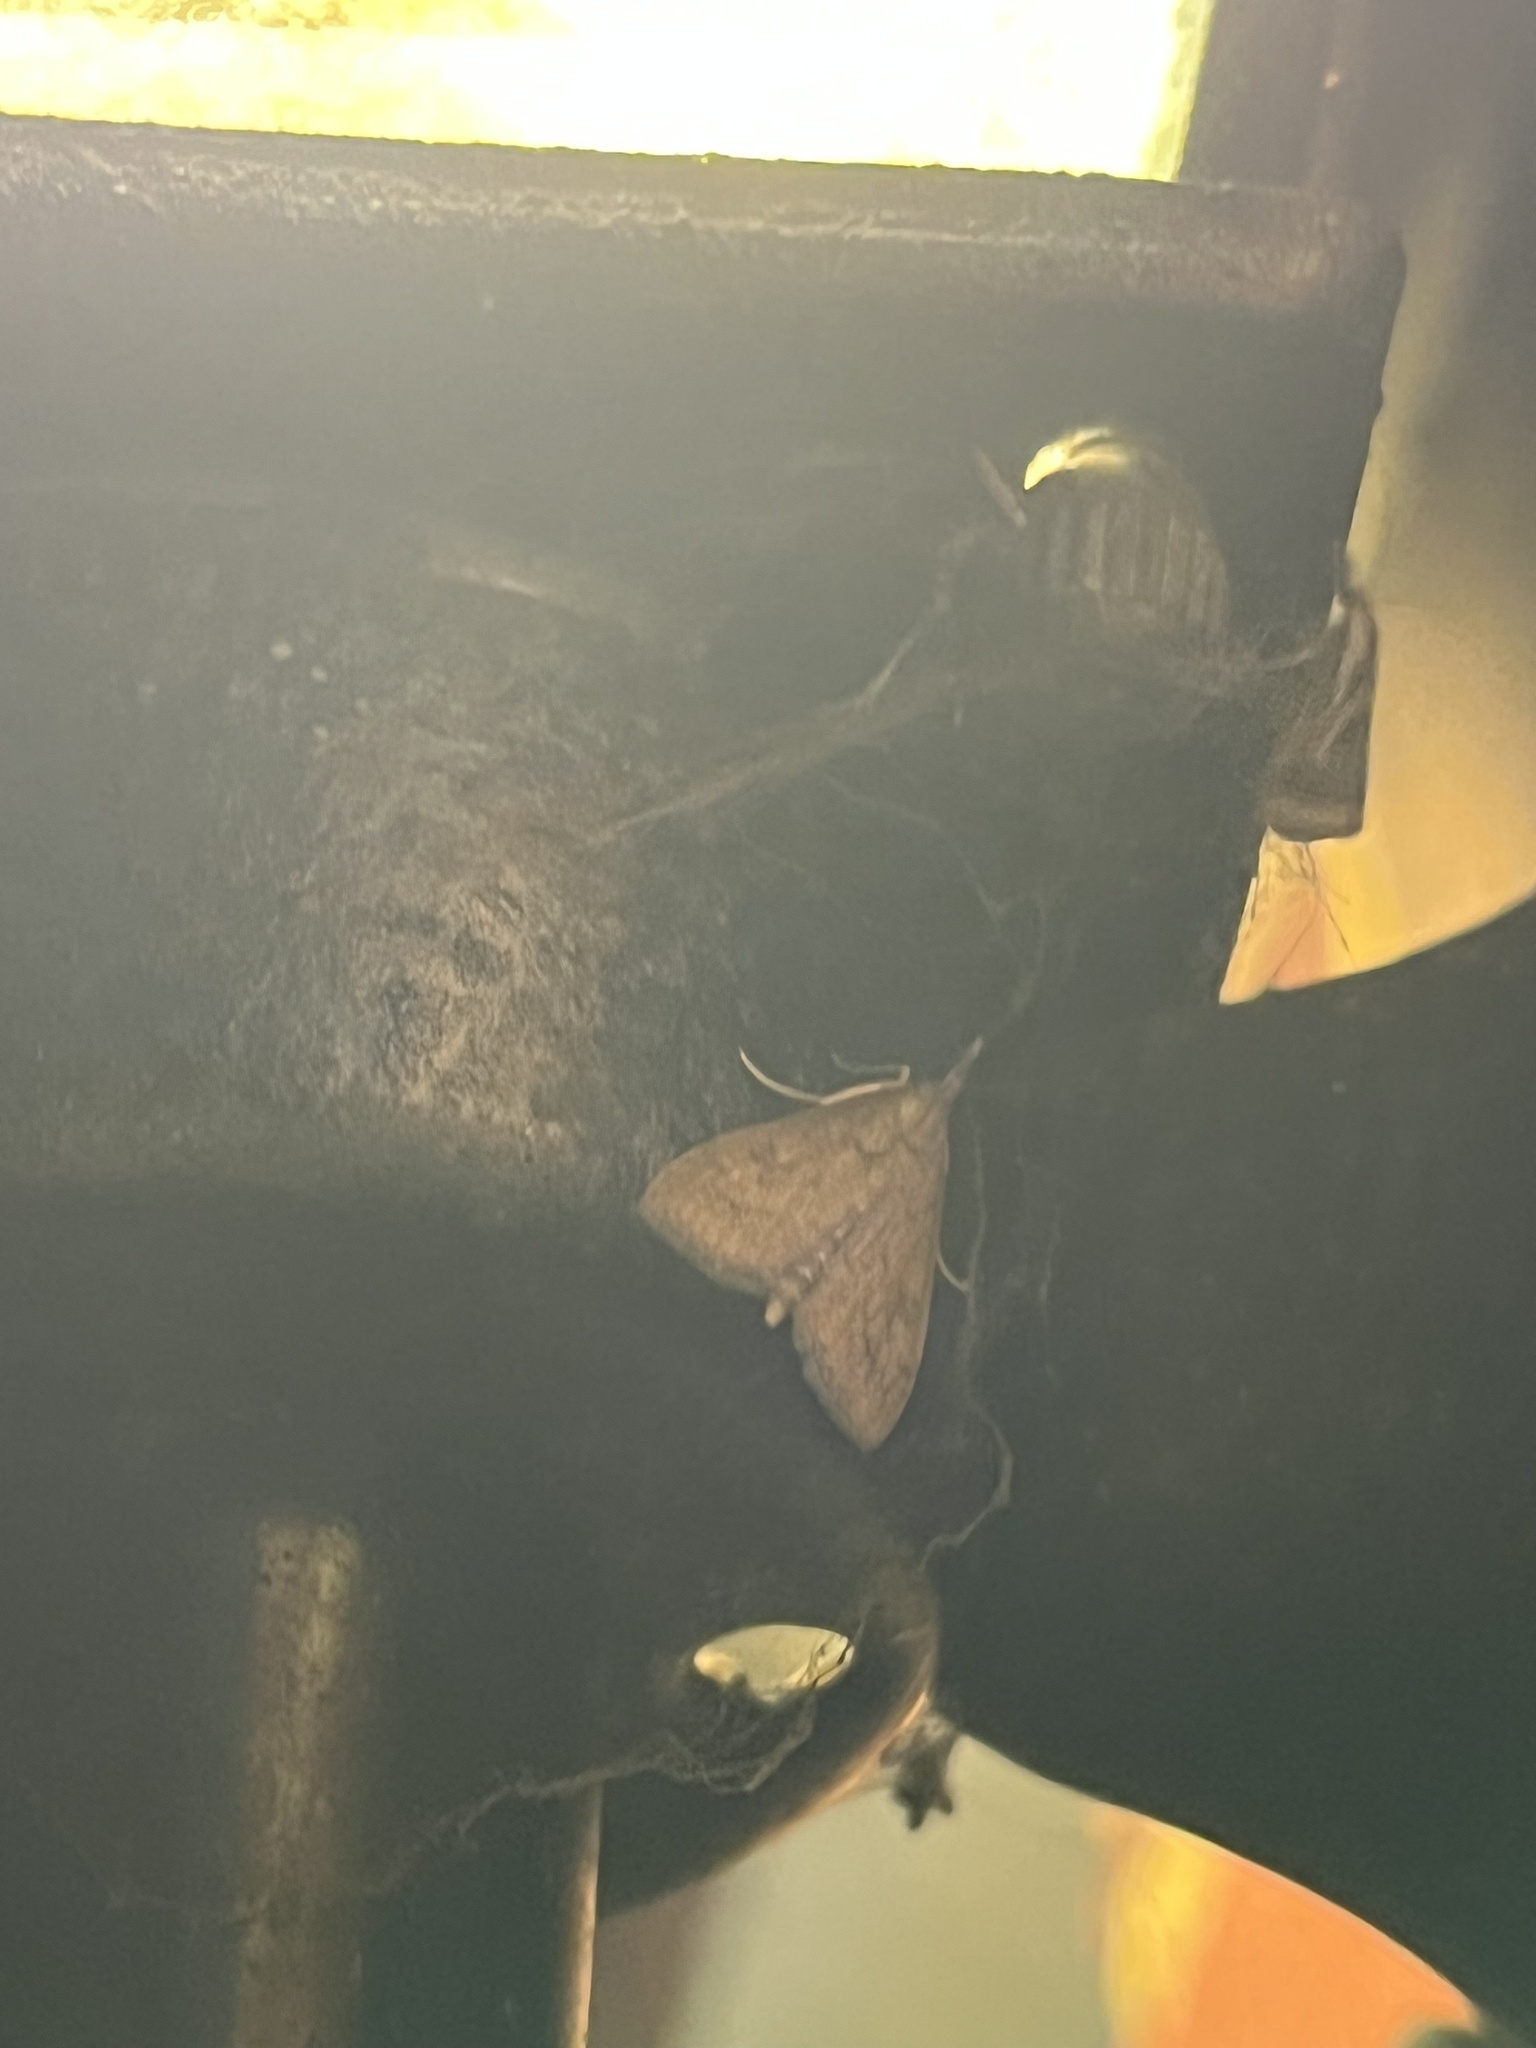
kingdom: Animalia
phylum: Arthropoda
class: Insecta
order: Lepidoptera
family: Crambidae
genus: Udea
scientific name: Udea rubigalis
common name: Celery leaftier moth
